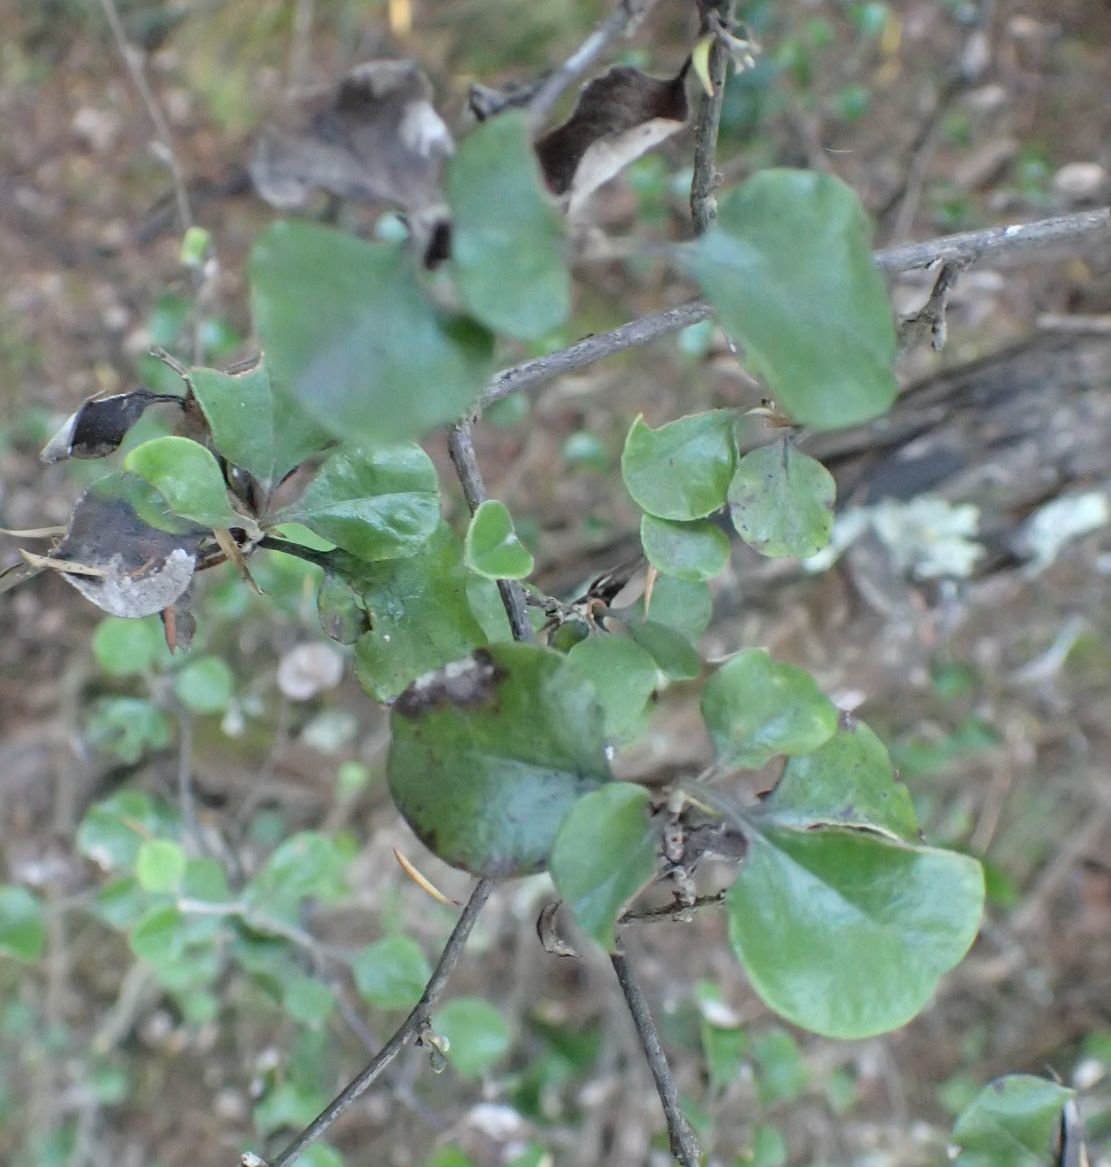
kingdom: Plantae
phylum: Tracheophyta
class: Magnoliopsida
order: Asterales
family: Asteraceae
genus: Ozothamnus
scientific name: Ozothamnus glomeratus
